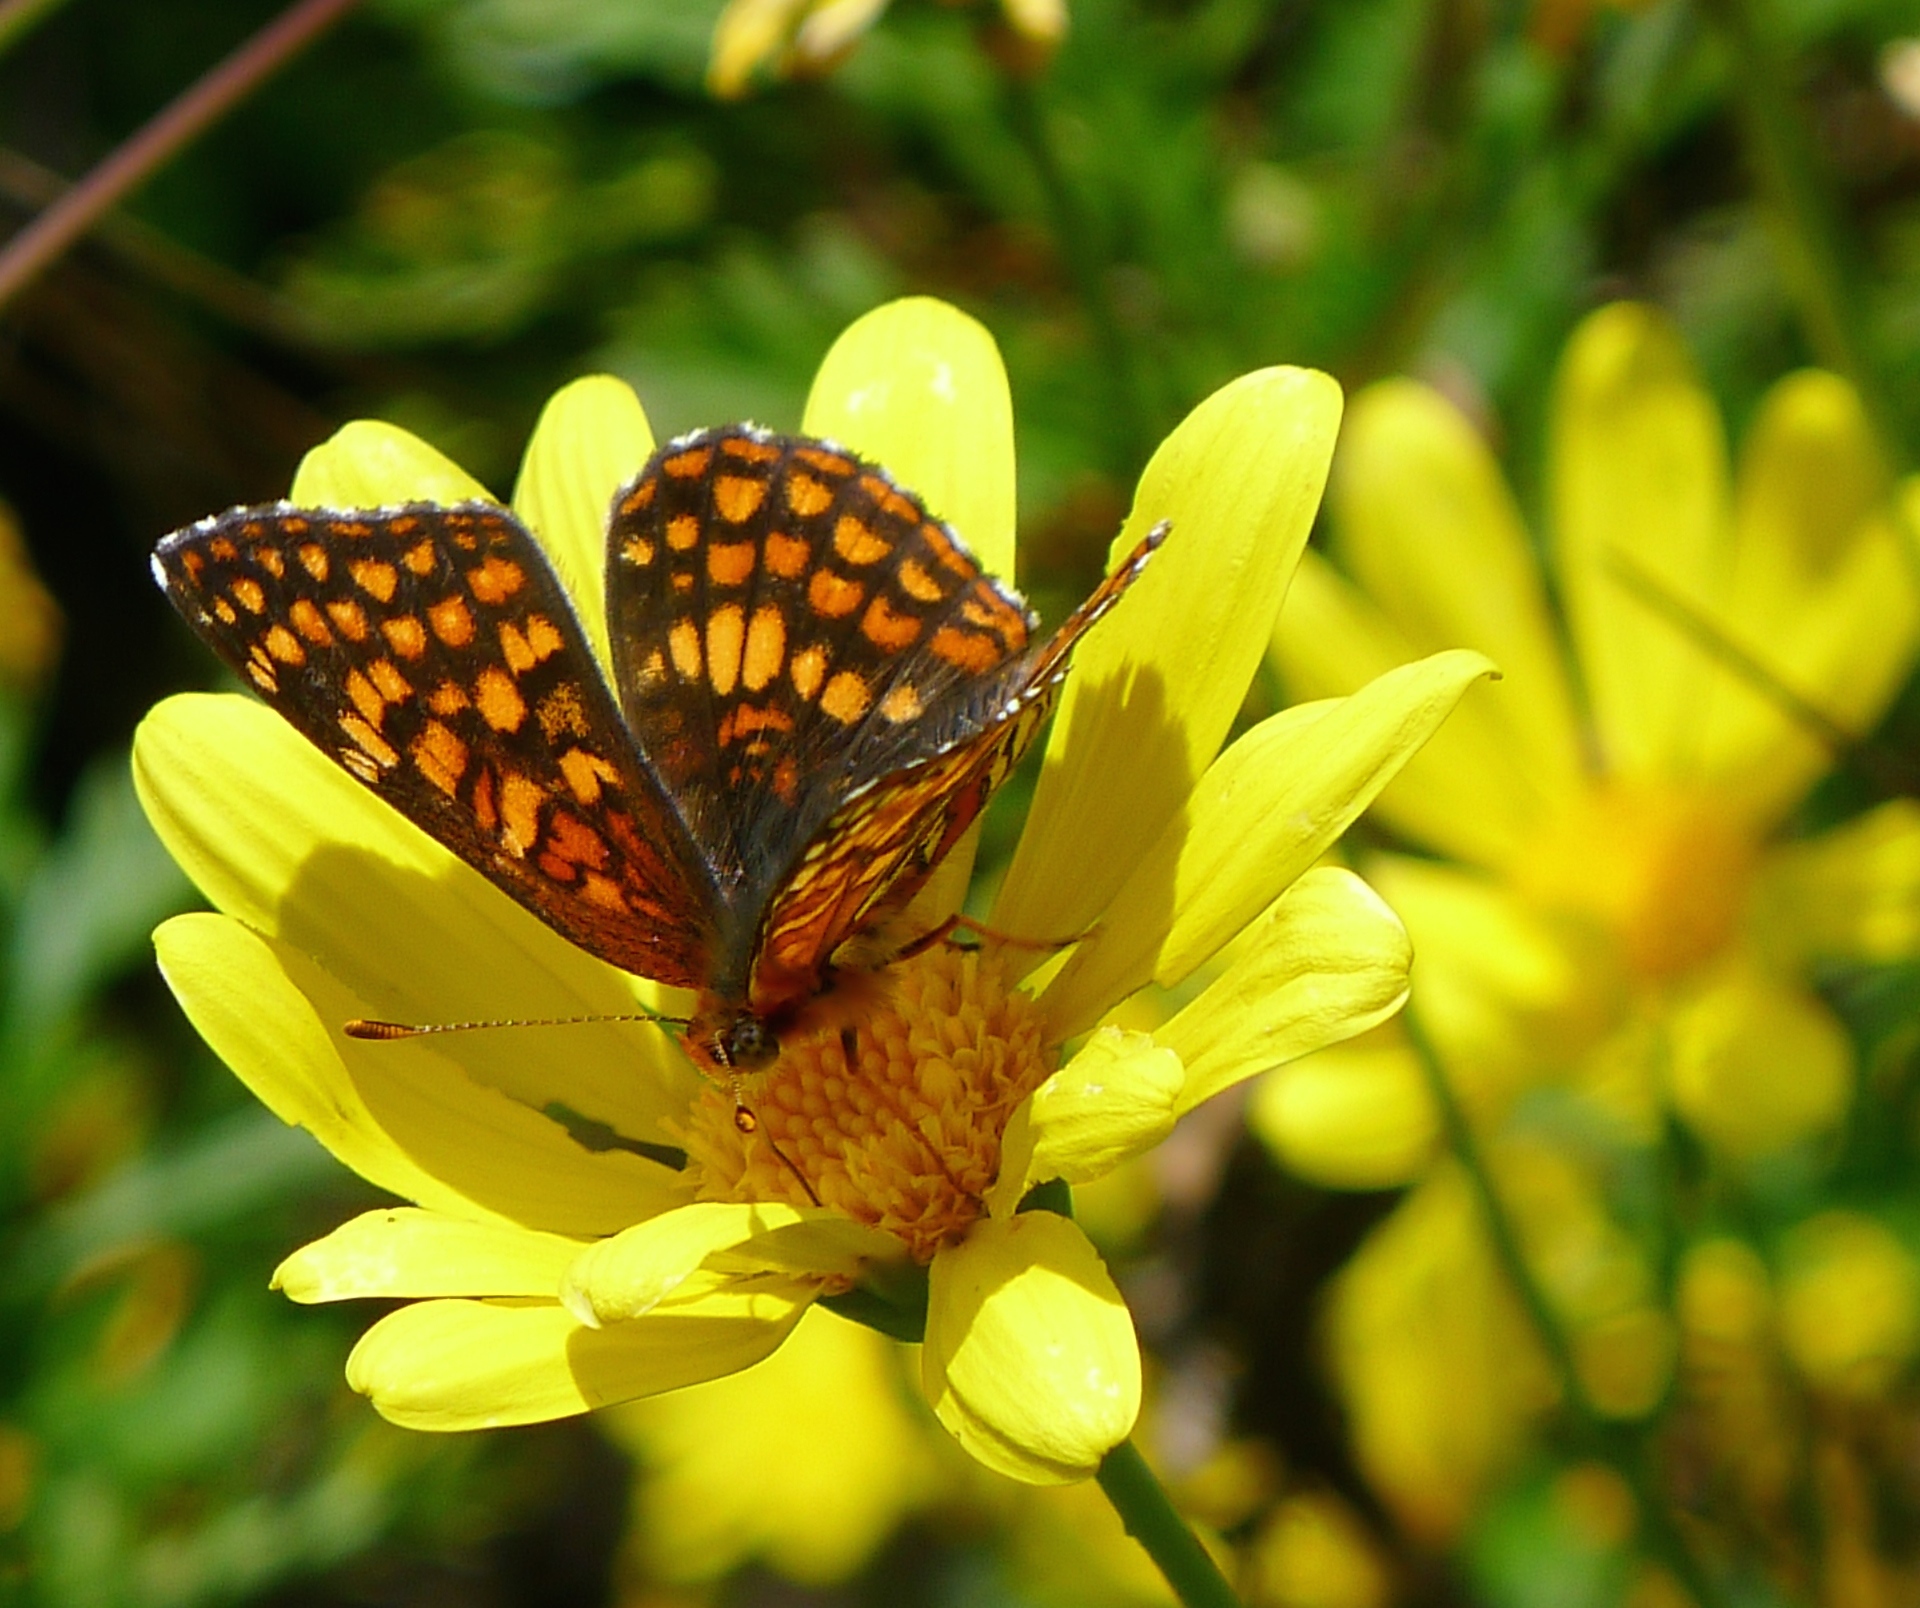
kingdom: Animalia
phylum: Arthropoda
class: Insecta
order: Lepidoptera
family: Nymphalidae
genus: Chlosyne
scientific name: Chlosyne palla
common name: Northern checkerspot
